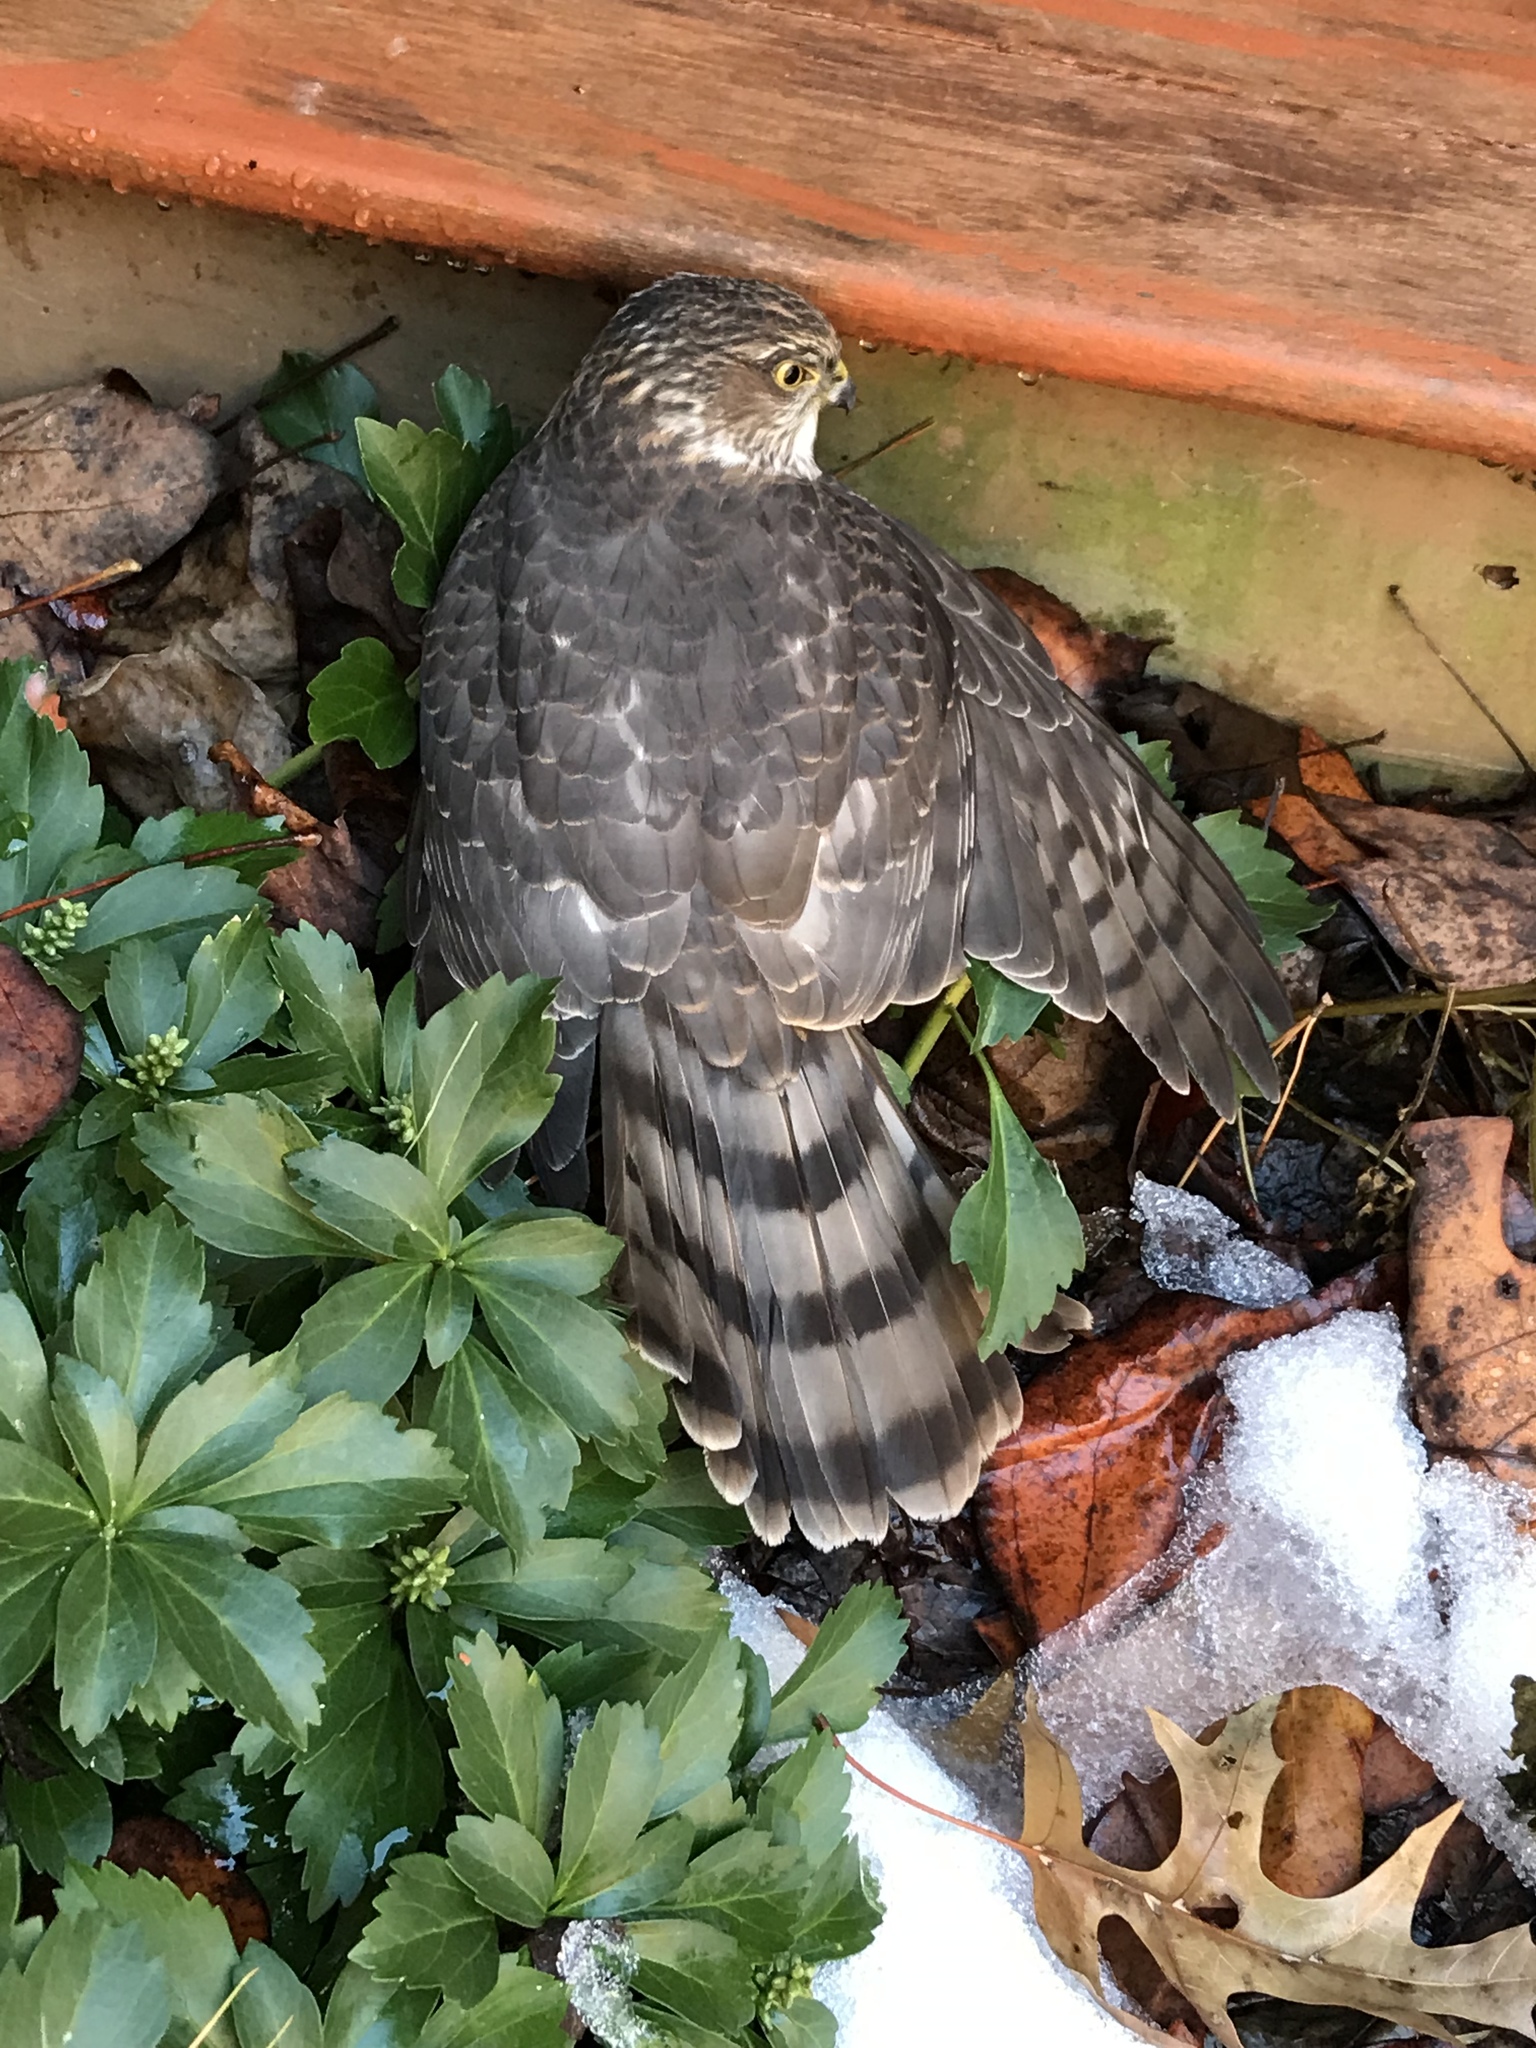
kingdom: Animalia
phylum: Chordata
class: Aves
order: Accipitriformes
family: Accipitridae
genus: Accipiter
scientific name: Accipiter striatus
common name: Sharp-shinned hawk
